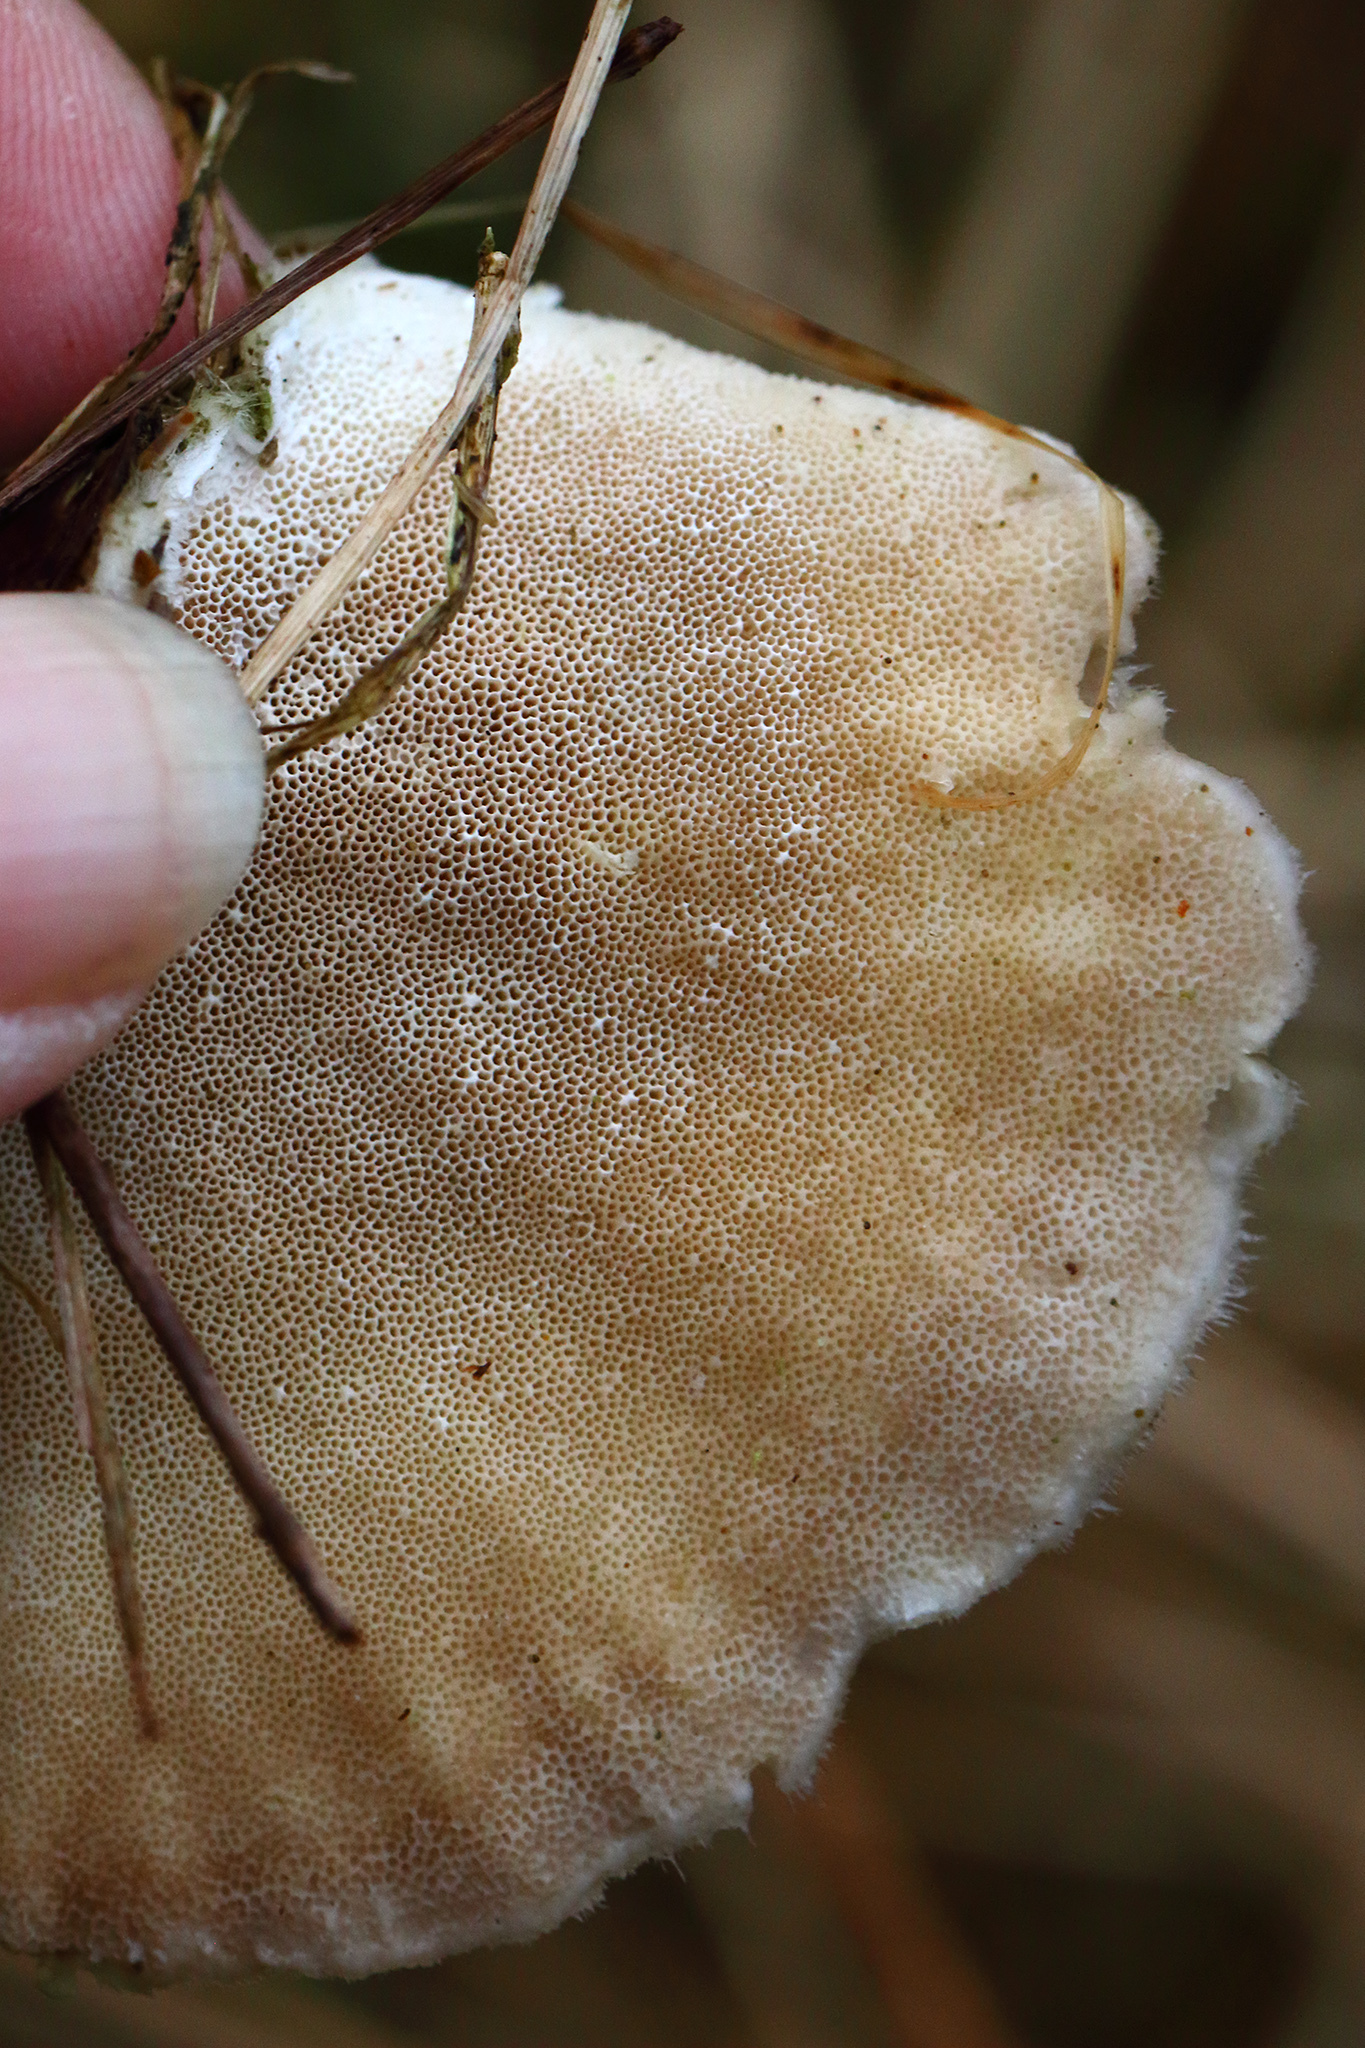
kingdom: Fungi
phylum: Basidiomycota
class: Agaricomycetes
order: Polyporales
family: Polyporaceae
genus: Trametes
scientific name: Trametes hirsuta
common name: Hairy bracket
